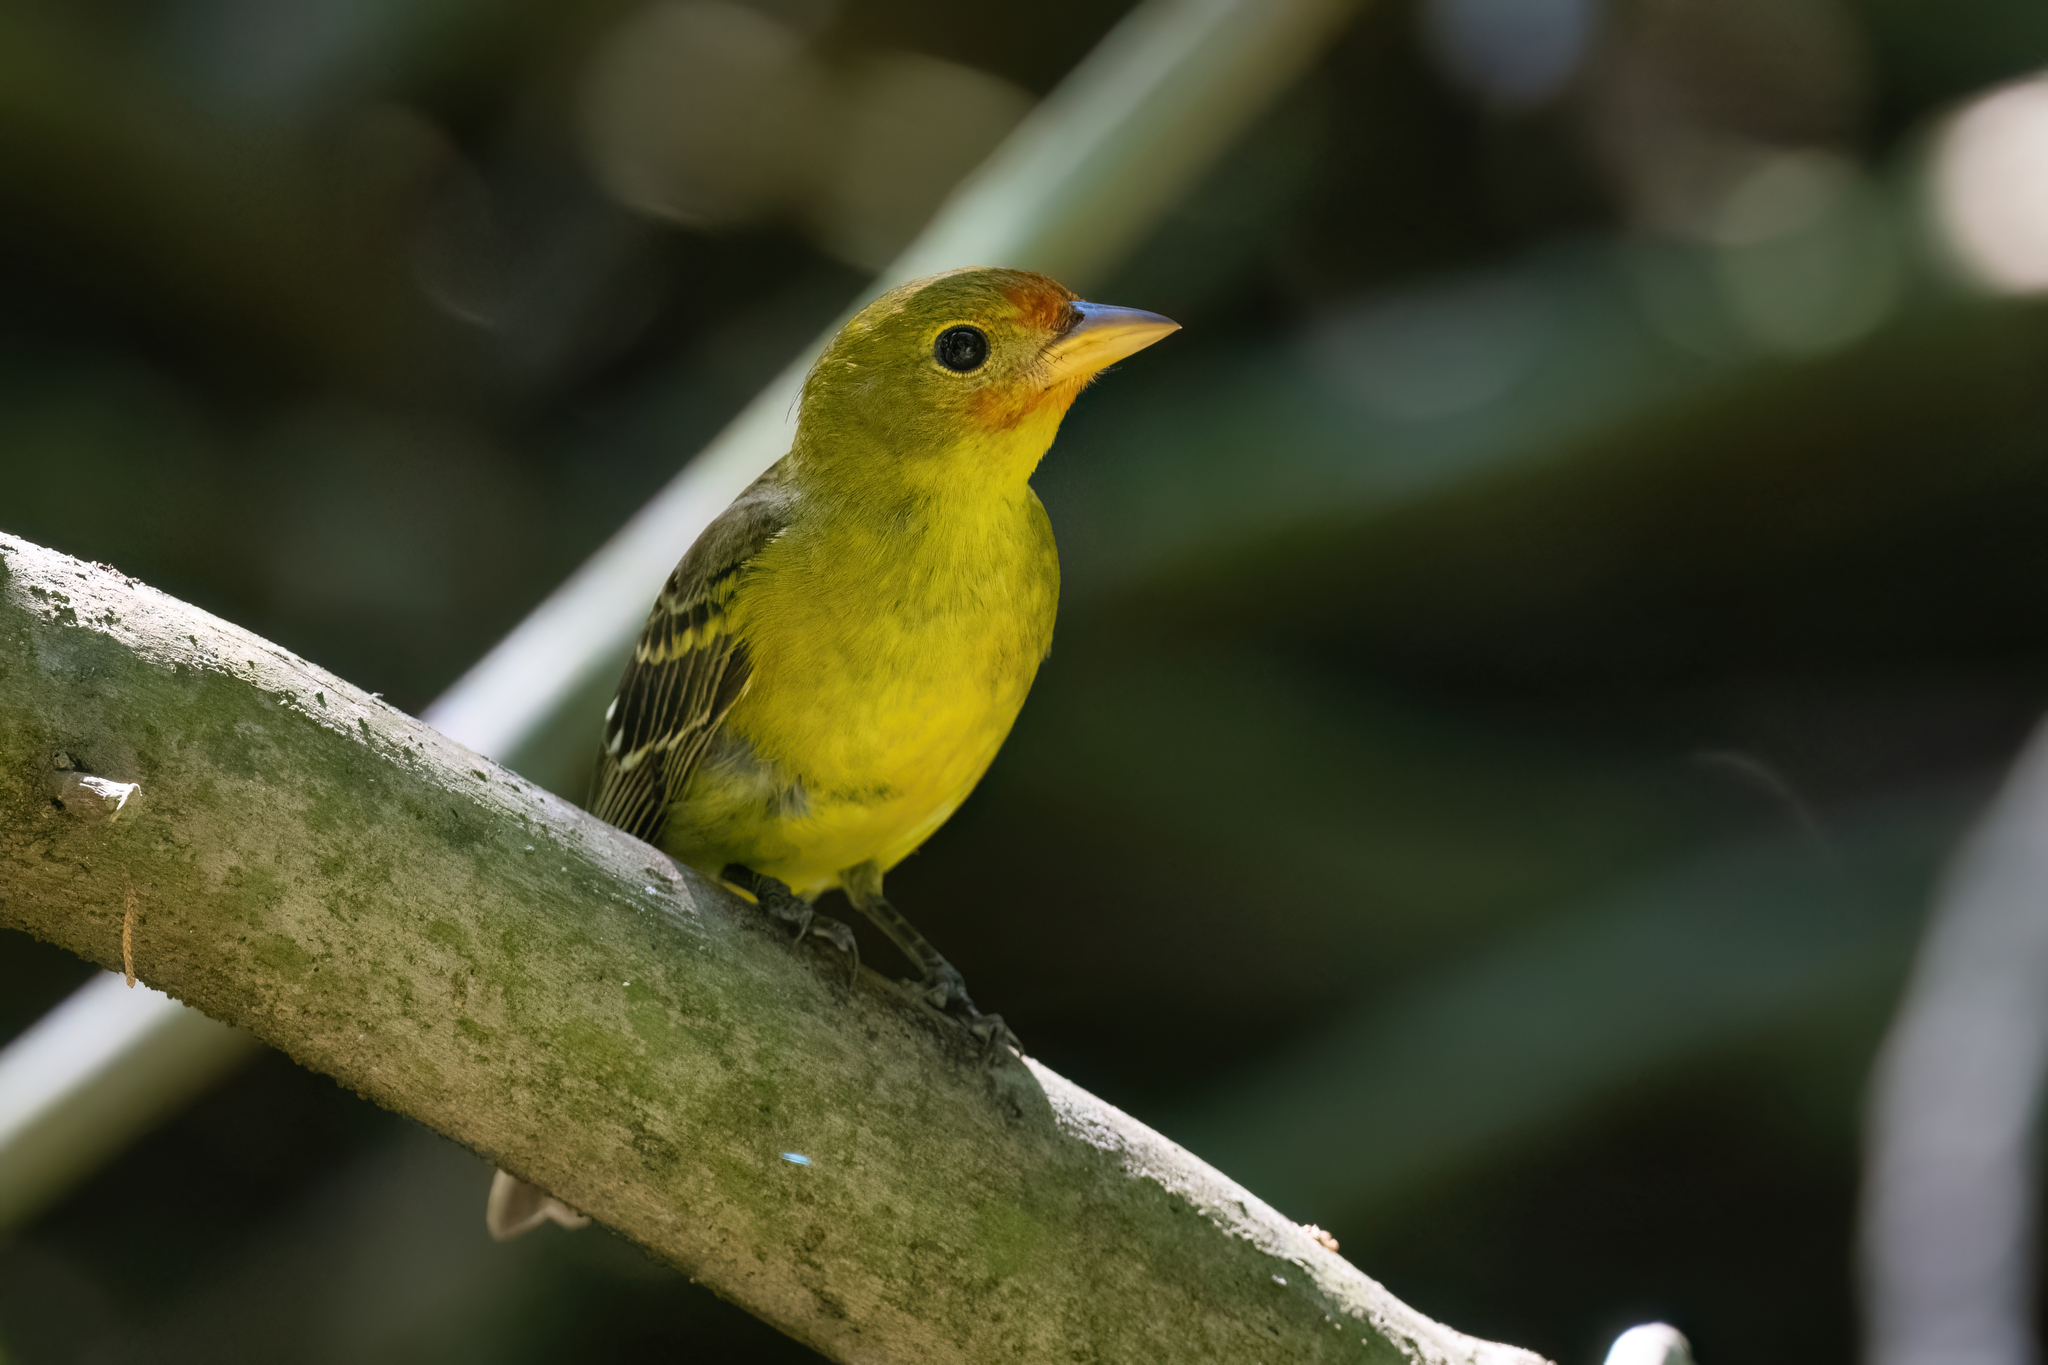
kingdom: Animalia
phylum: Chordata
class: Aves
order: Passeriformes
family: Cardinalidae
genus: Piranga
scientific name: Piranga ludoviciana
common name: Western tanager
